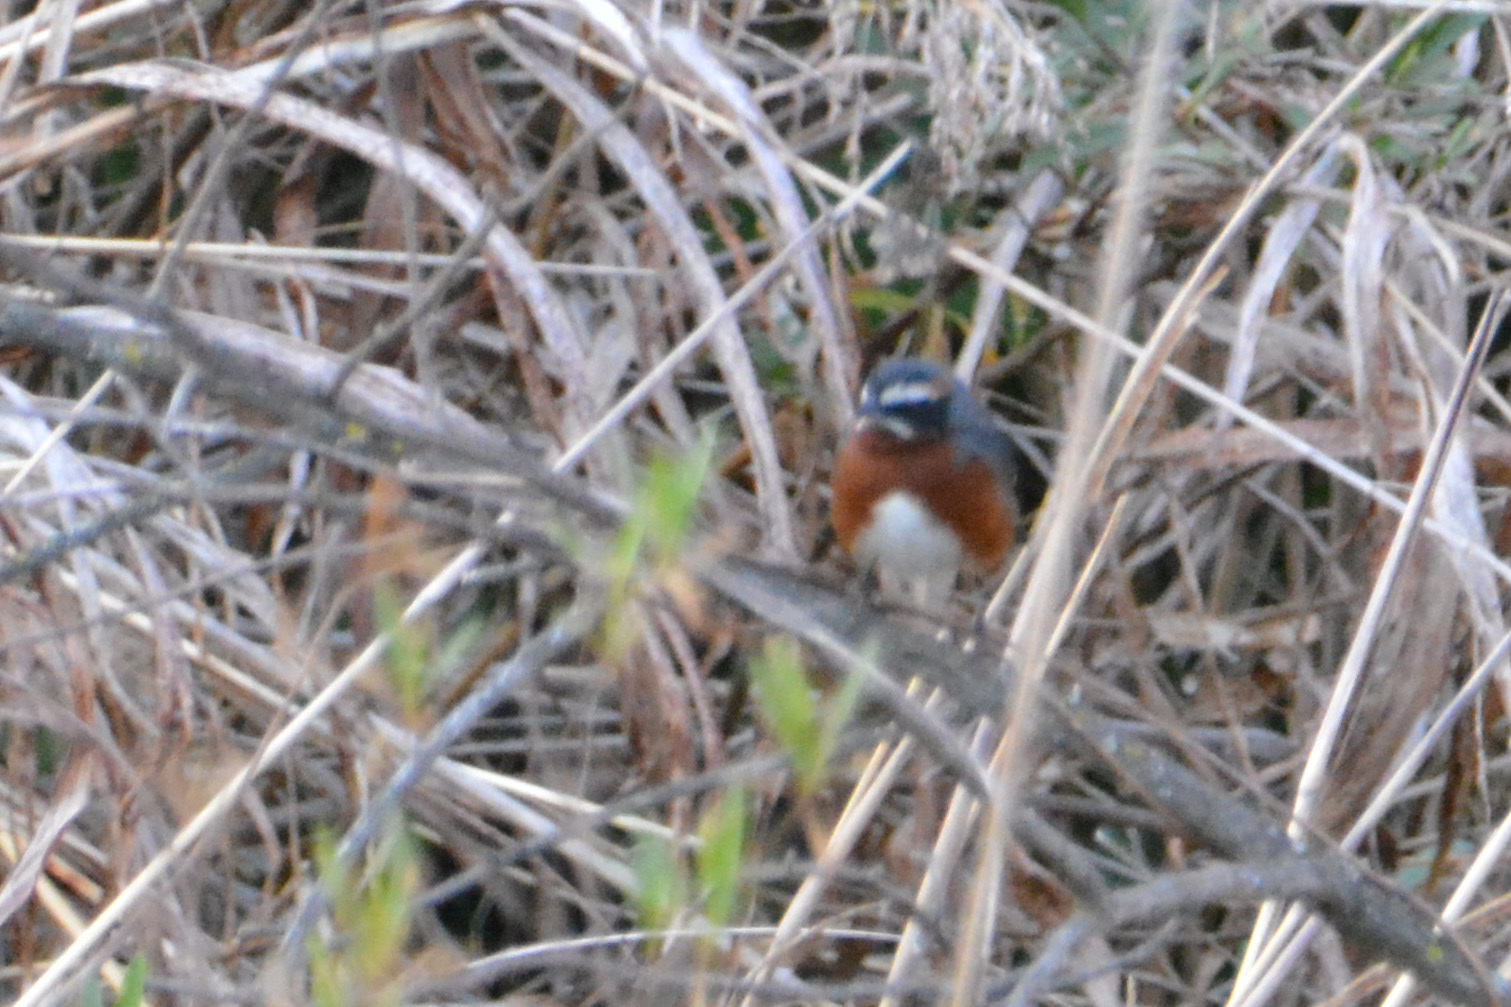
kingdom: Animalia
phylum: Chordata
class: Aves
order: Passeriformes
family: Thraupidae
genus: Poospiza
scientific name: Poospiza whitii
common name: Black-and-chestnut warbling finch
